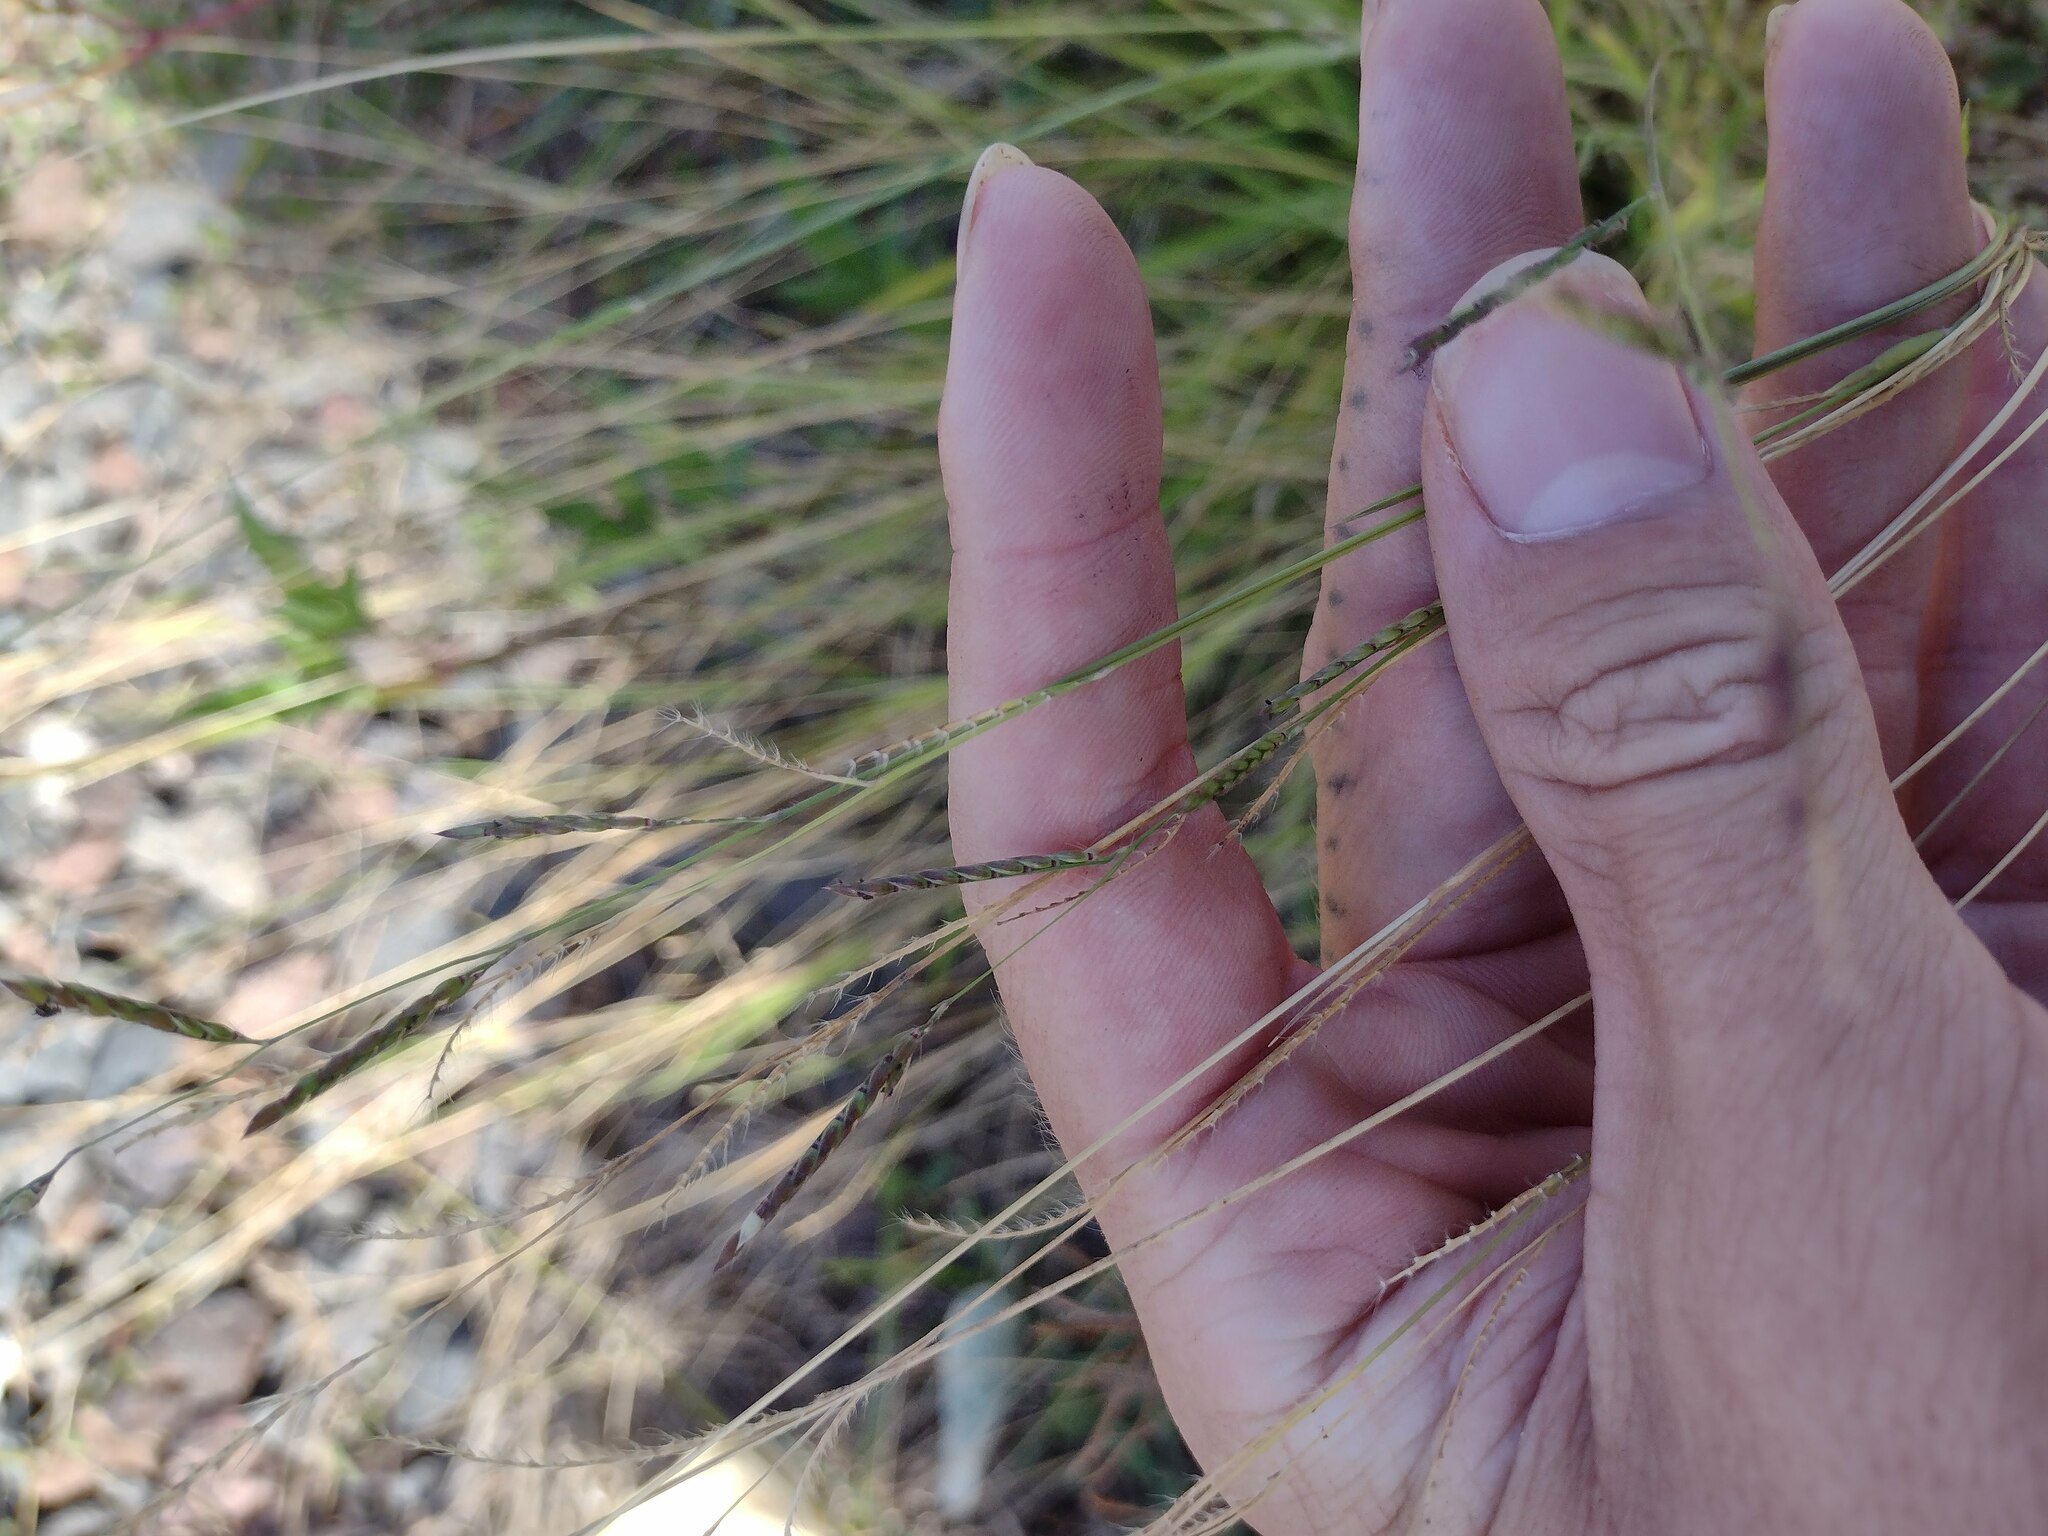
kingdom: Plantae
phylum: Tracheophyta
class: Liliopsida
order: Poales
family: Poaceae
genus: Eriochloa
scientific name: Eriochloa procera
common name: Spring grass
